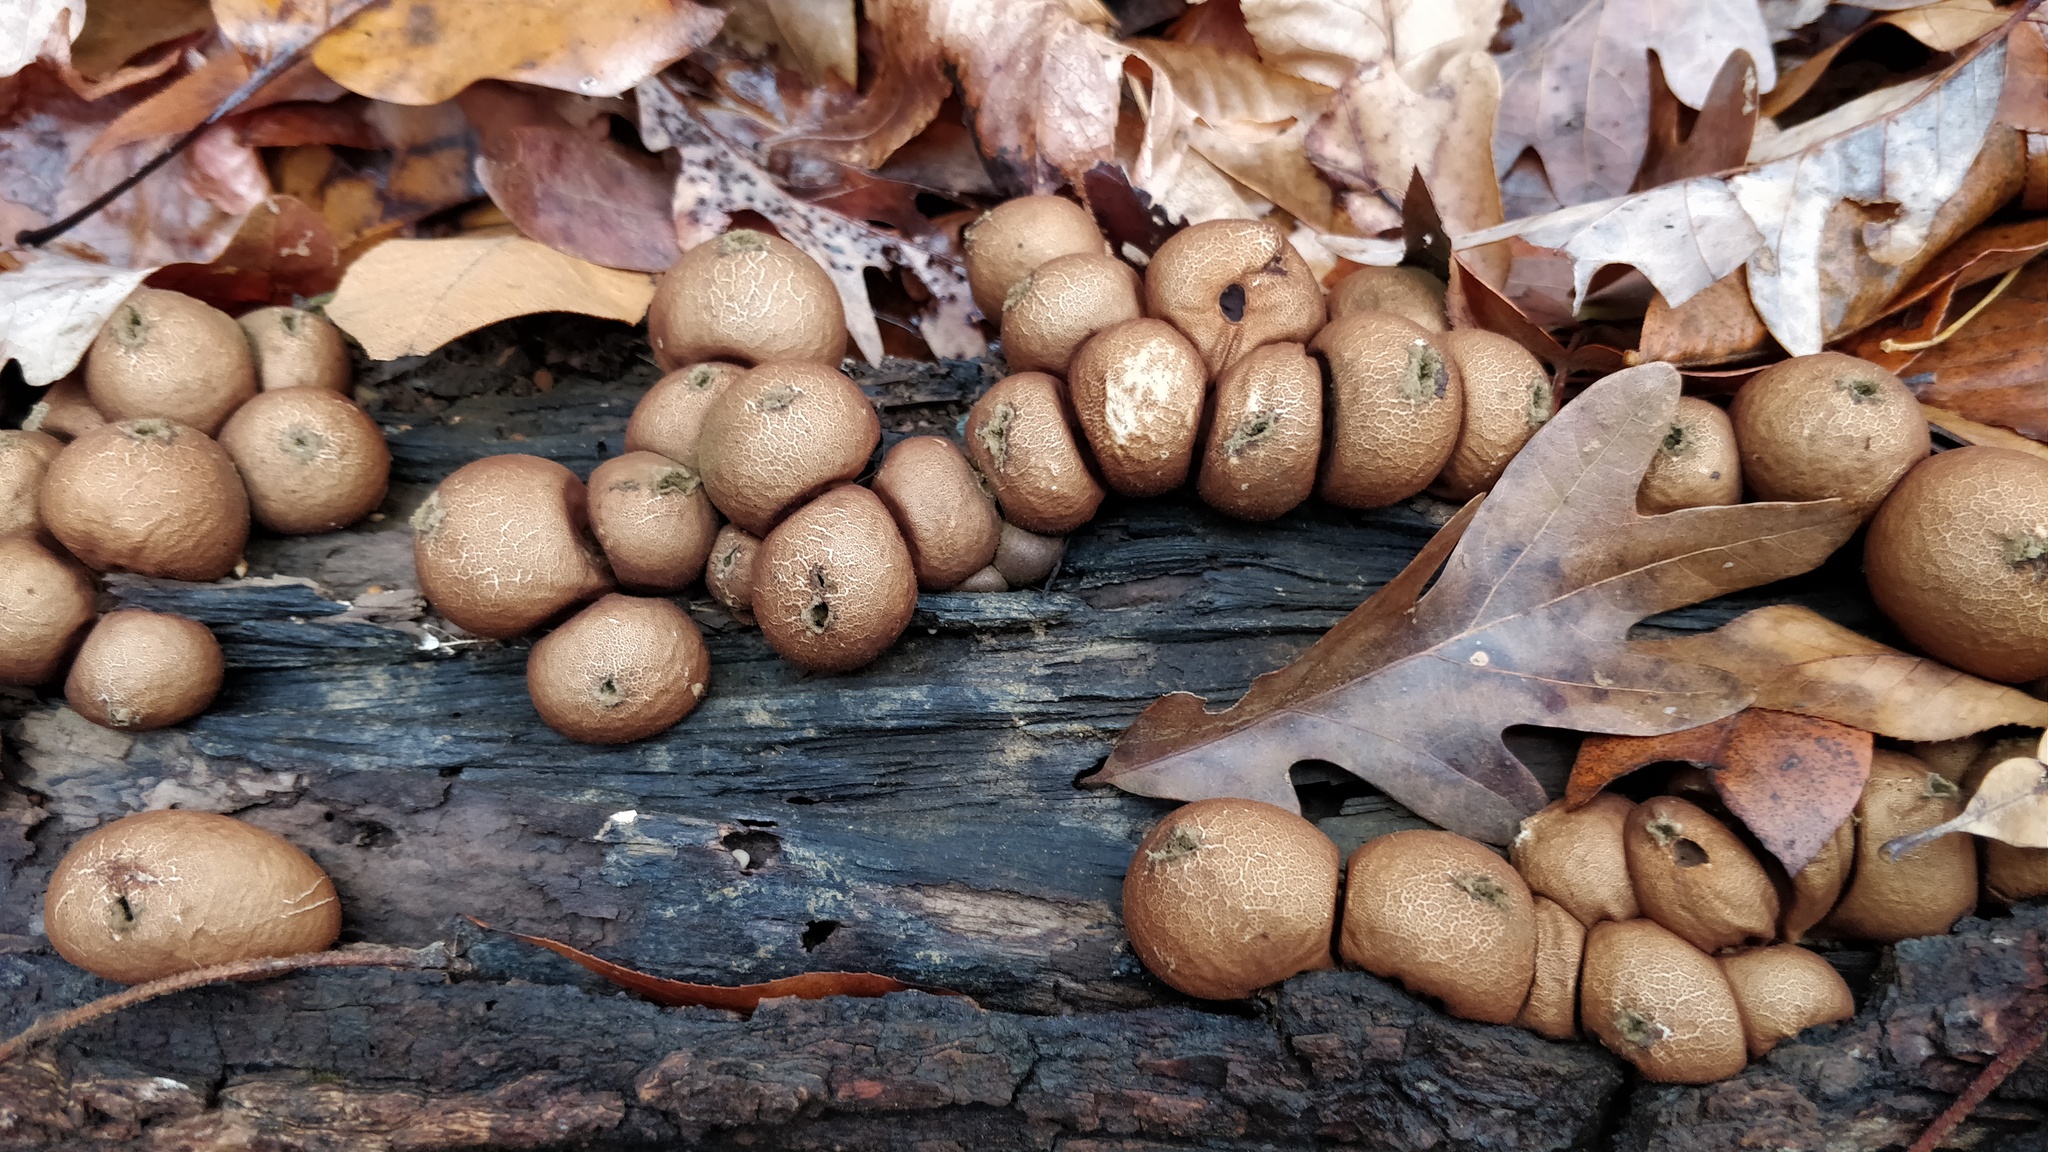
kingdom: Fungi
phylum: Basidiomycota
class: Agaricomycetes
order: Agaricales
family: Lycoperdaceae
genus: Apioperdon
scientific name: Apioperdon pyriforme
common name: Pear-shaped puffball
